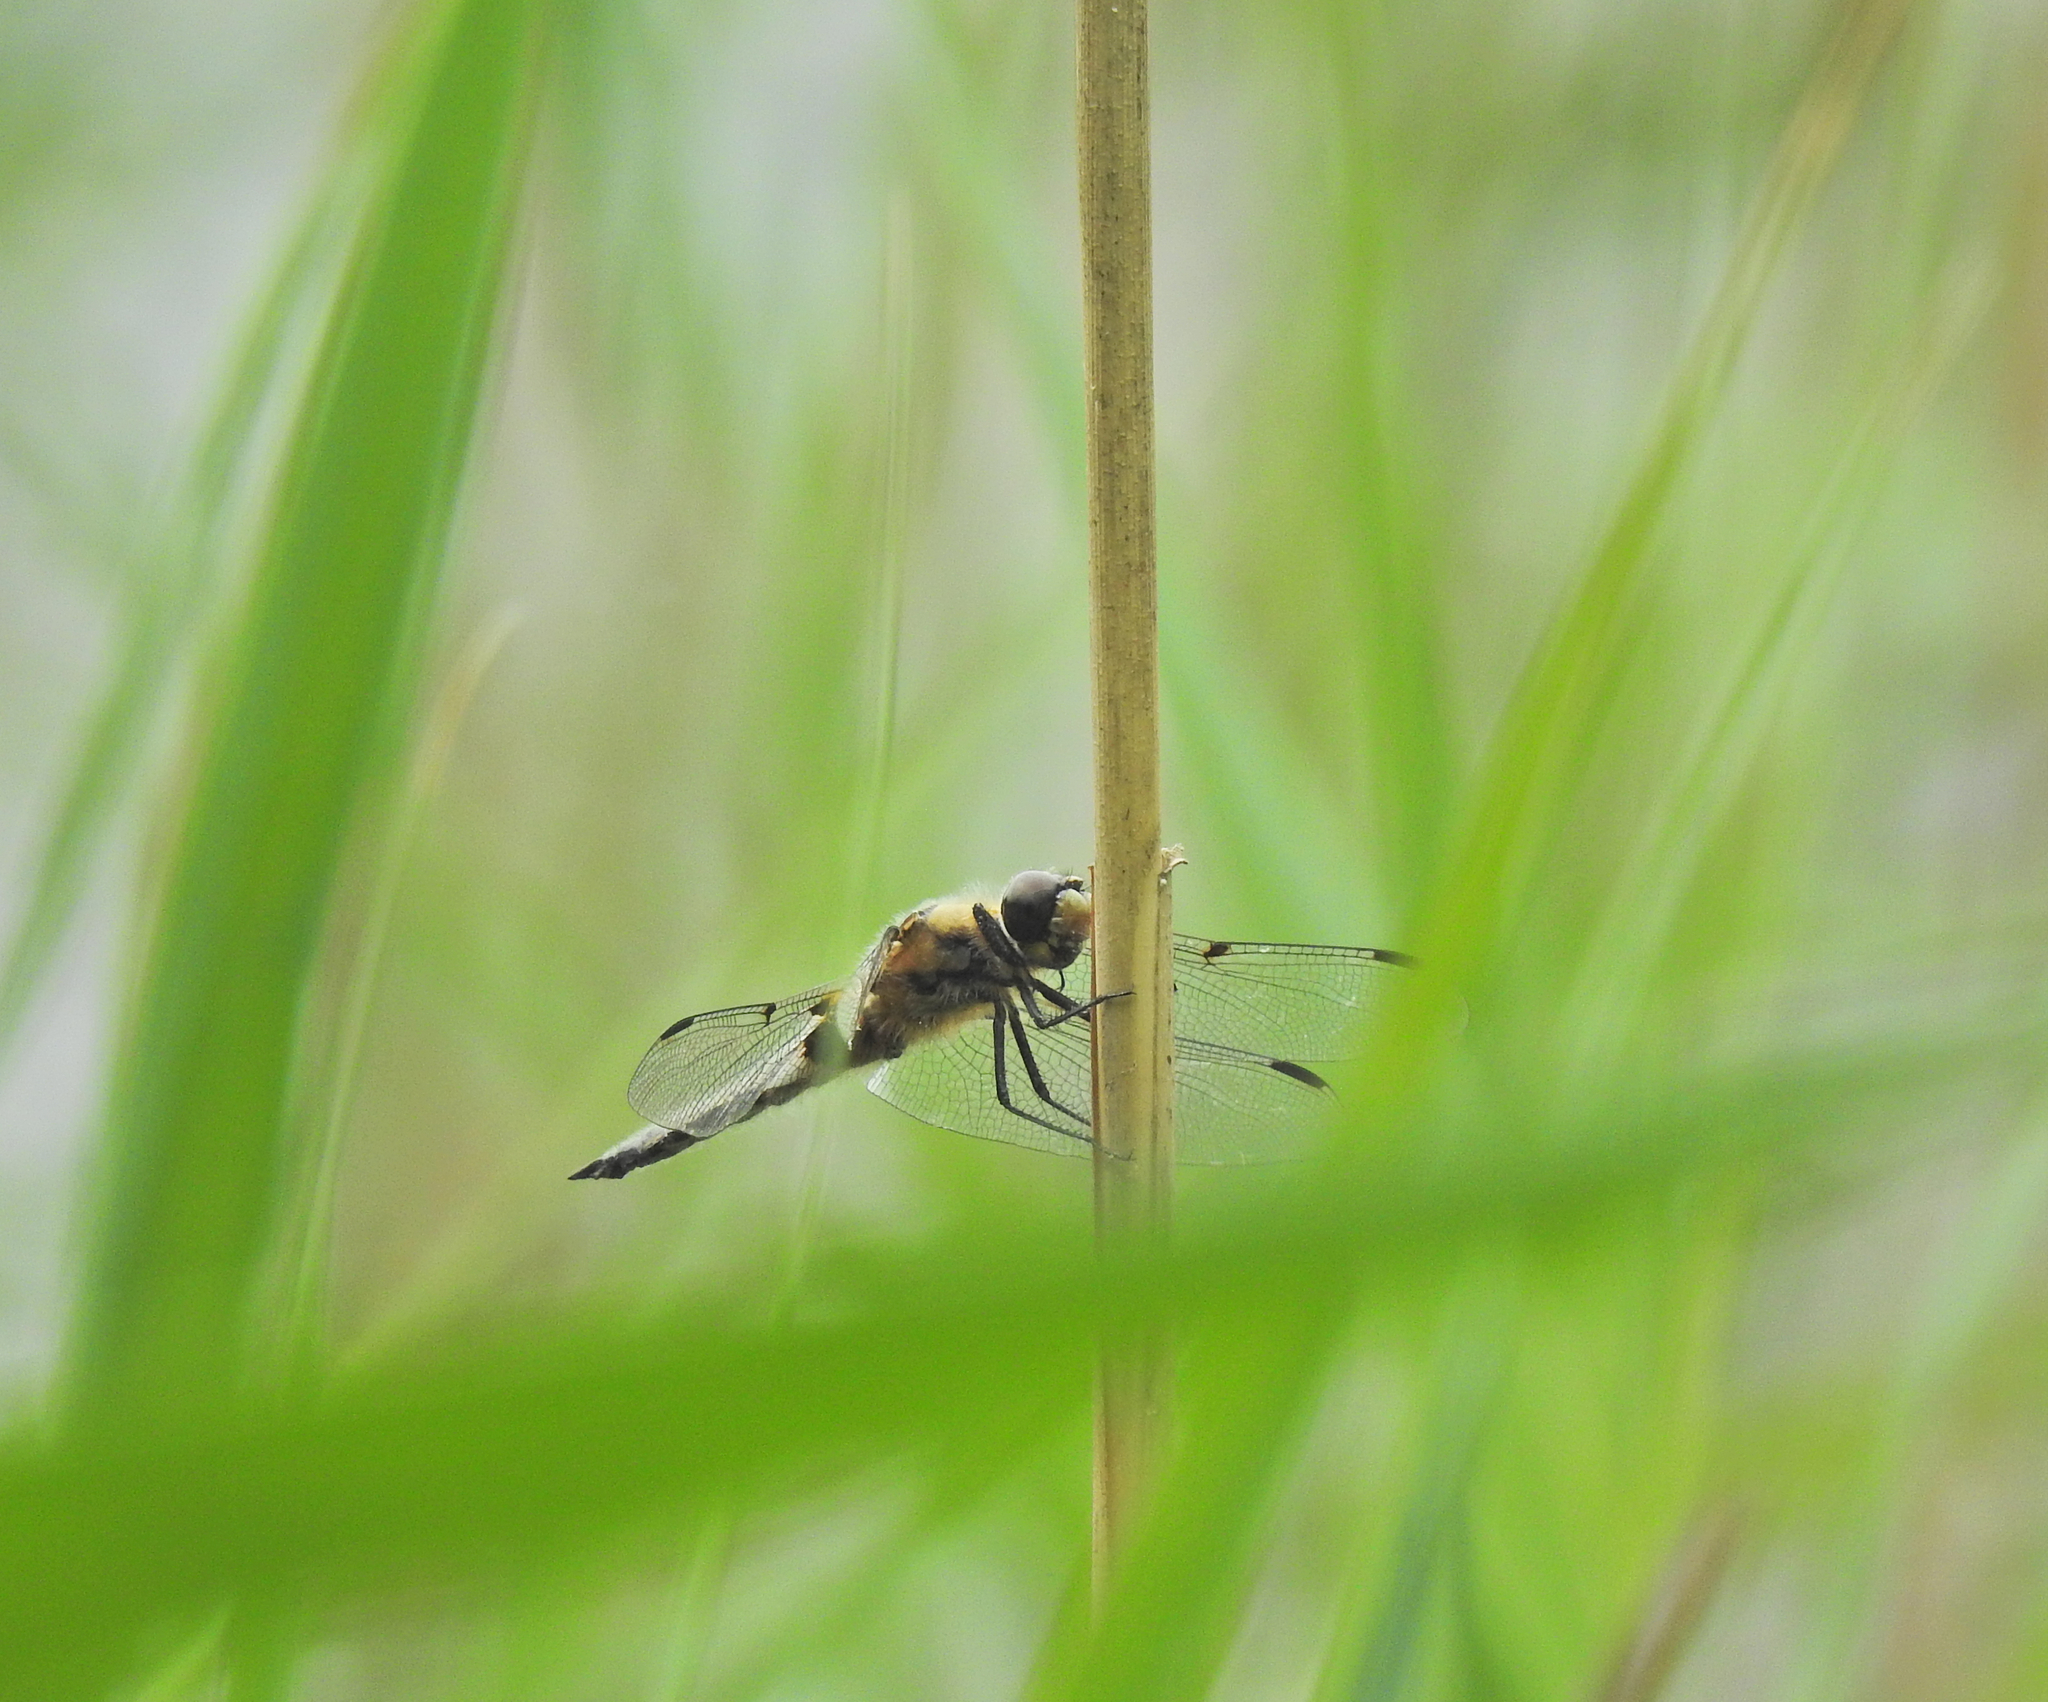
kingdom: Animalia
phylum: Arthropoda
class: Insecta
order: Odonata
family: Libellulidae
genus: Libellula
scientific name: Libellula quadrimaculata
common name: Four-spotted chaser
